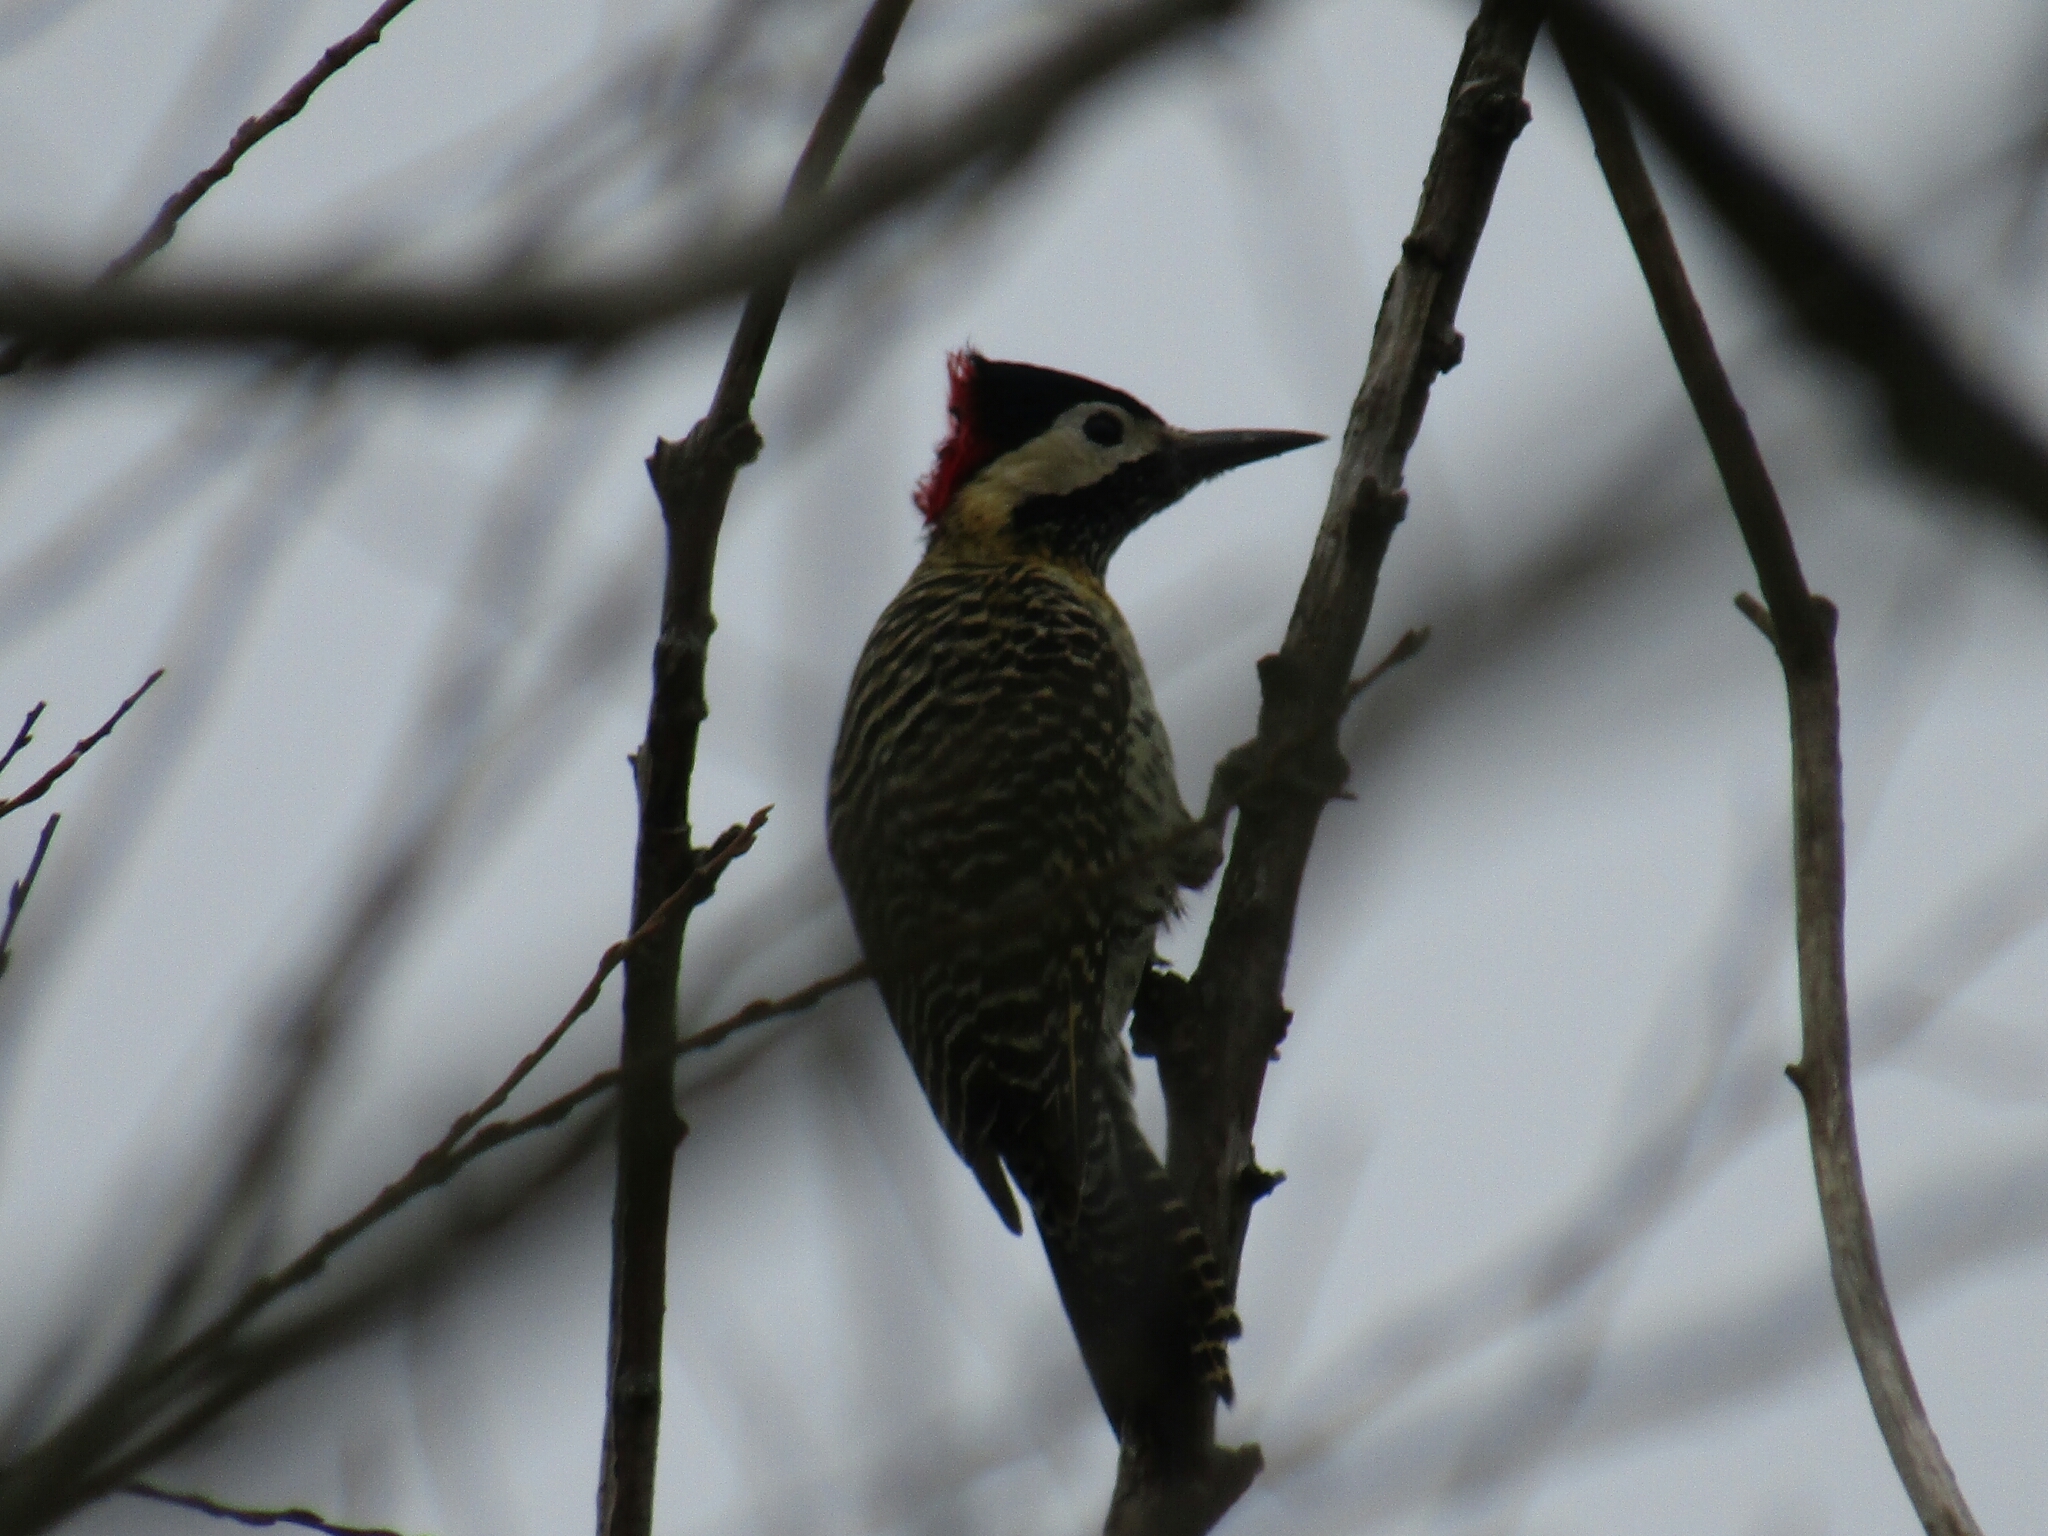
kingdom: Animalia
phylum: Chordata
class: Aves
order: Piciformes
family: Picidae
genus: Colaptes
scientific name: Colaptes melanochloros
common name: Green-barred woodpecker
